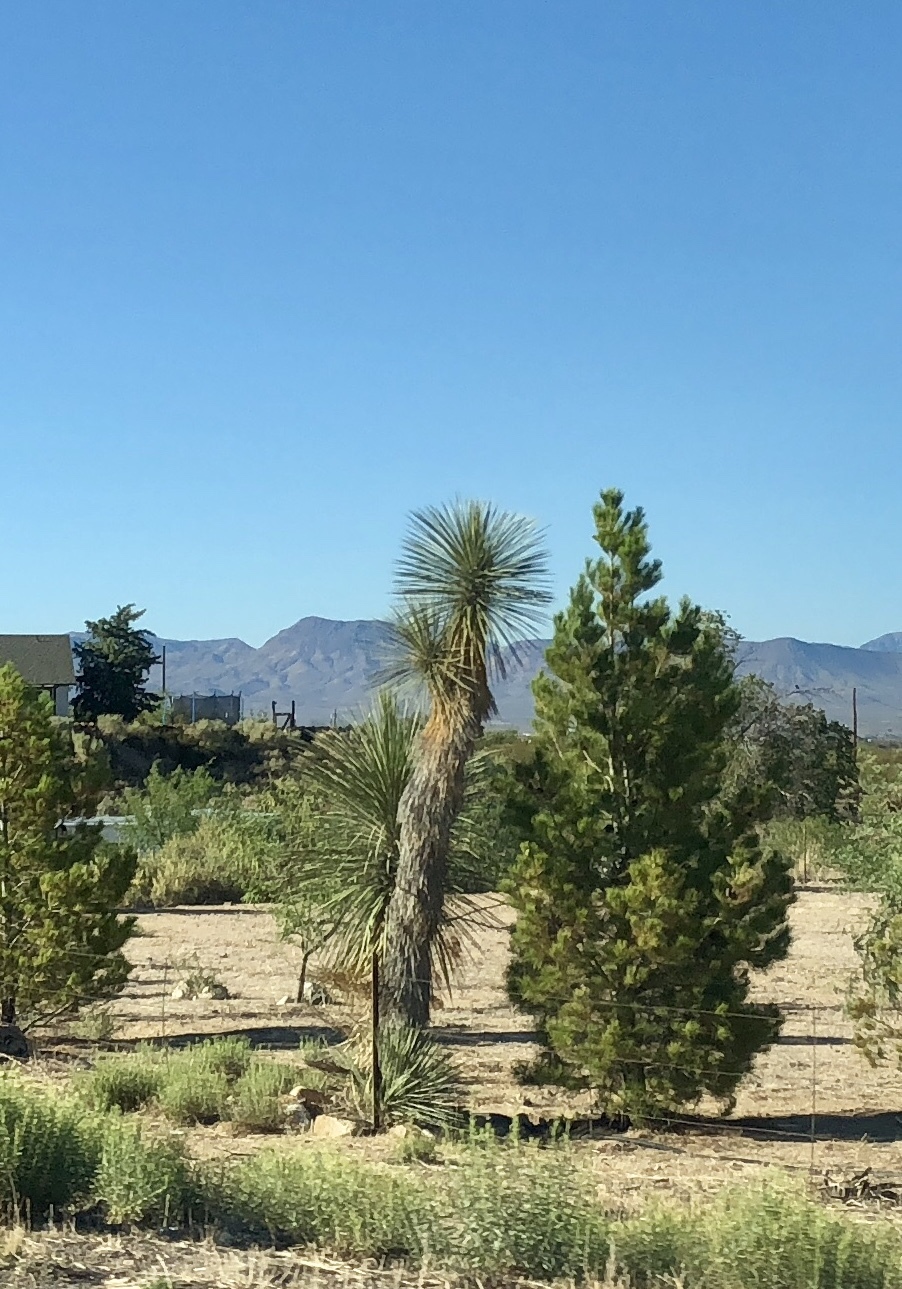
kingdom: Plantae
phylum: Tracheophyta
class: Liliopsida
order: Asparagales
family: Asparagaceae
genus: Yucca
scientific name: Yucca elata
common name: Palmella
